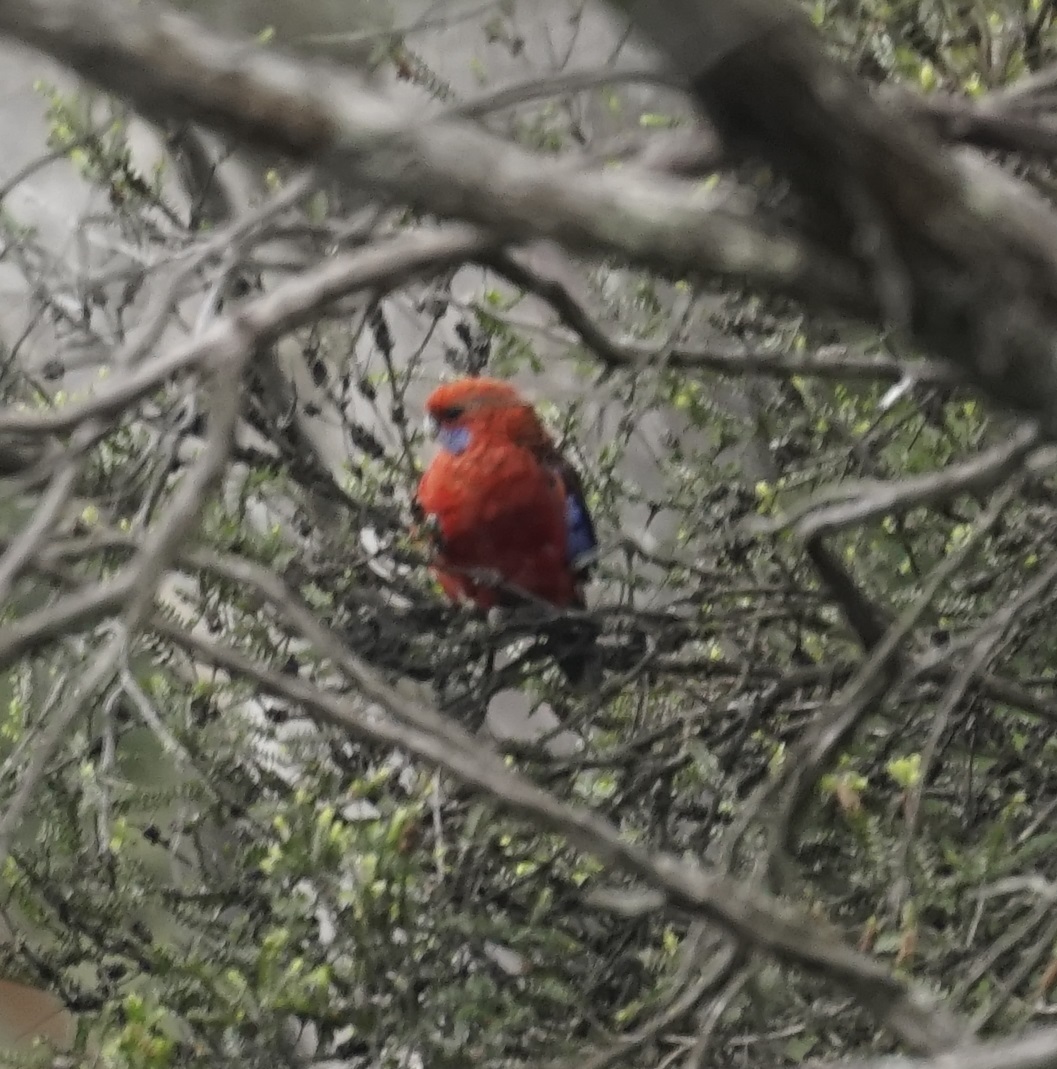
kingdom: Animalia
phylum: Chordata
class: Aves
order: Psittaciformes
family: Psittacidae
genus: Platycercus
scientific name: Platycercus elegans
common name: Crimson rosella
